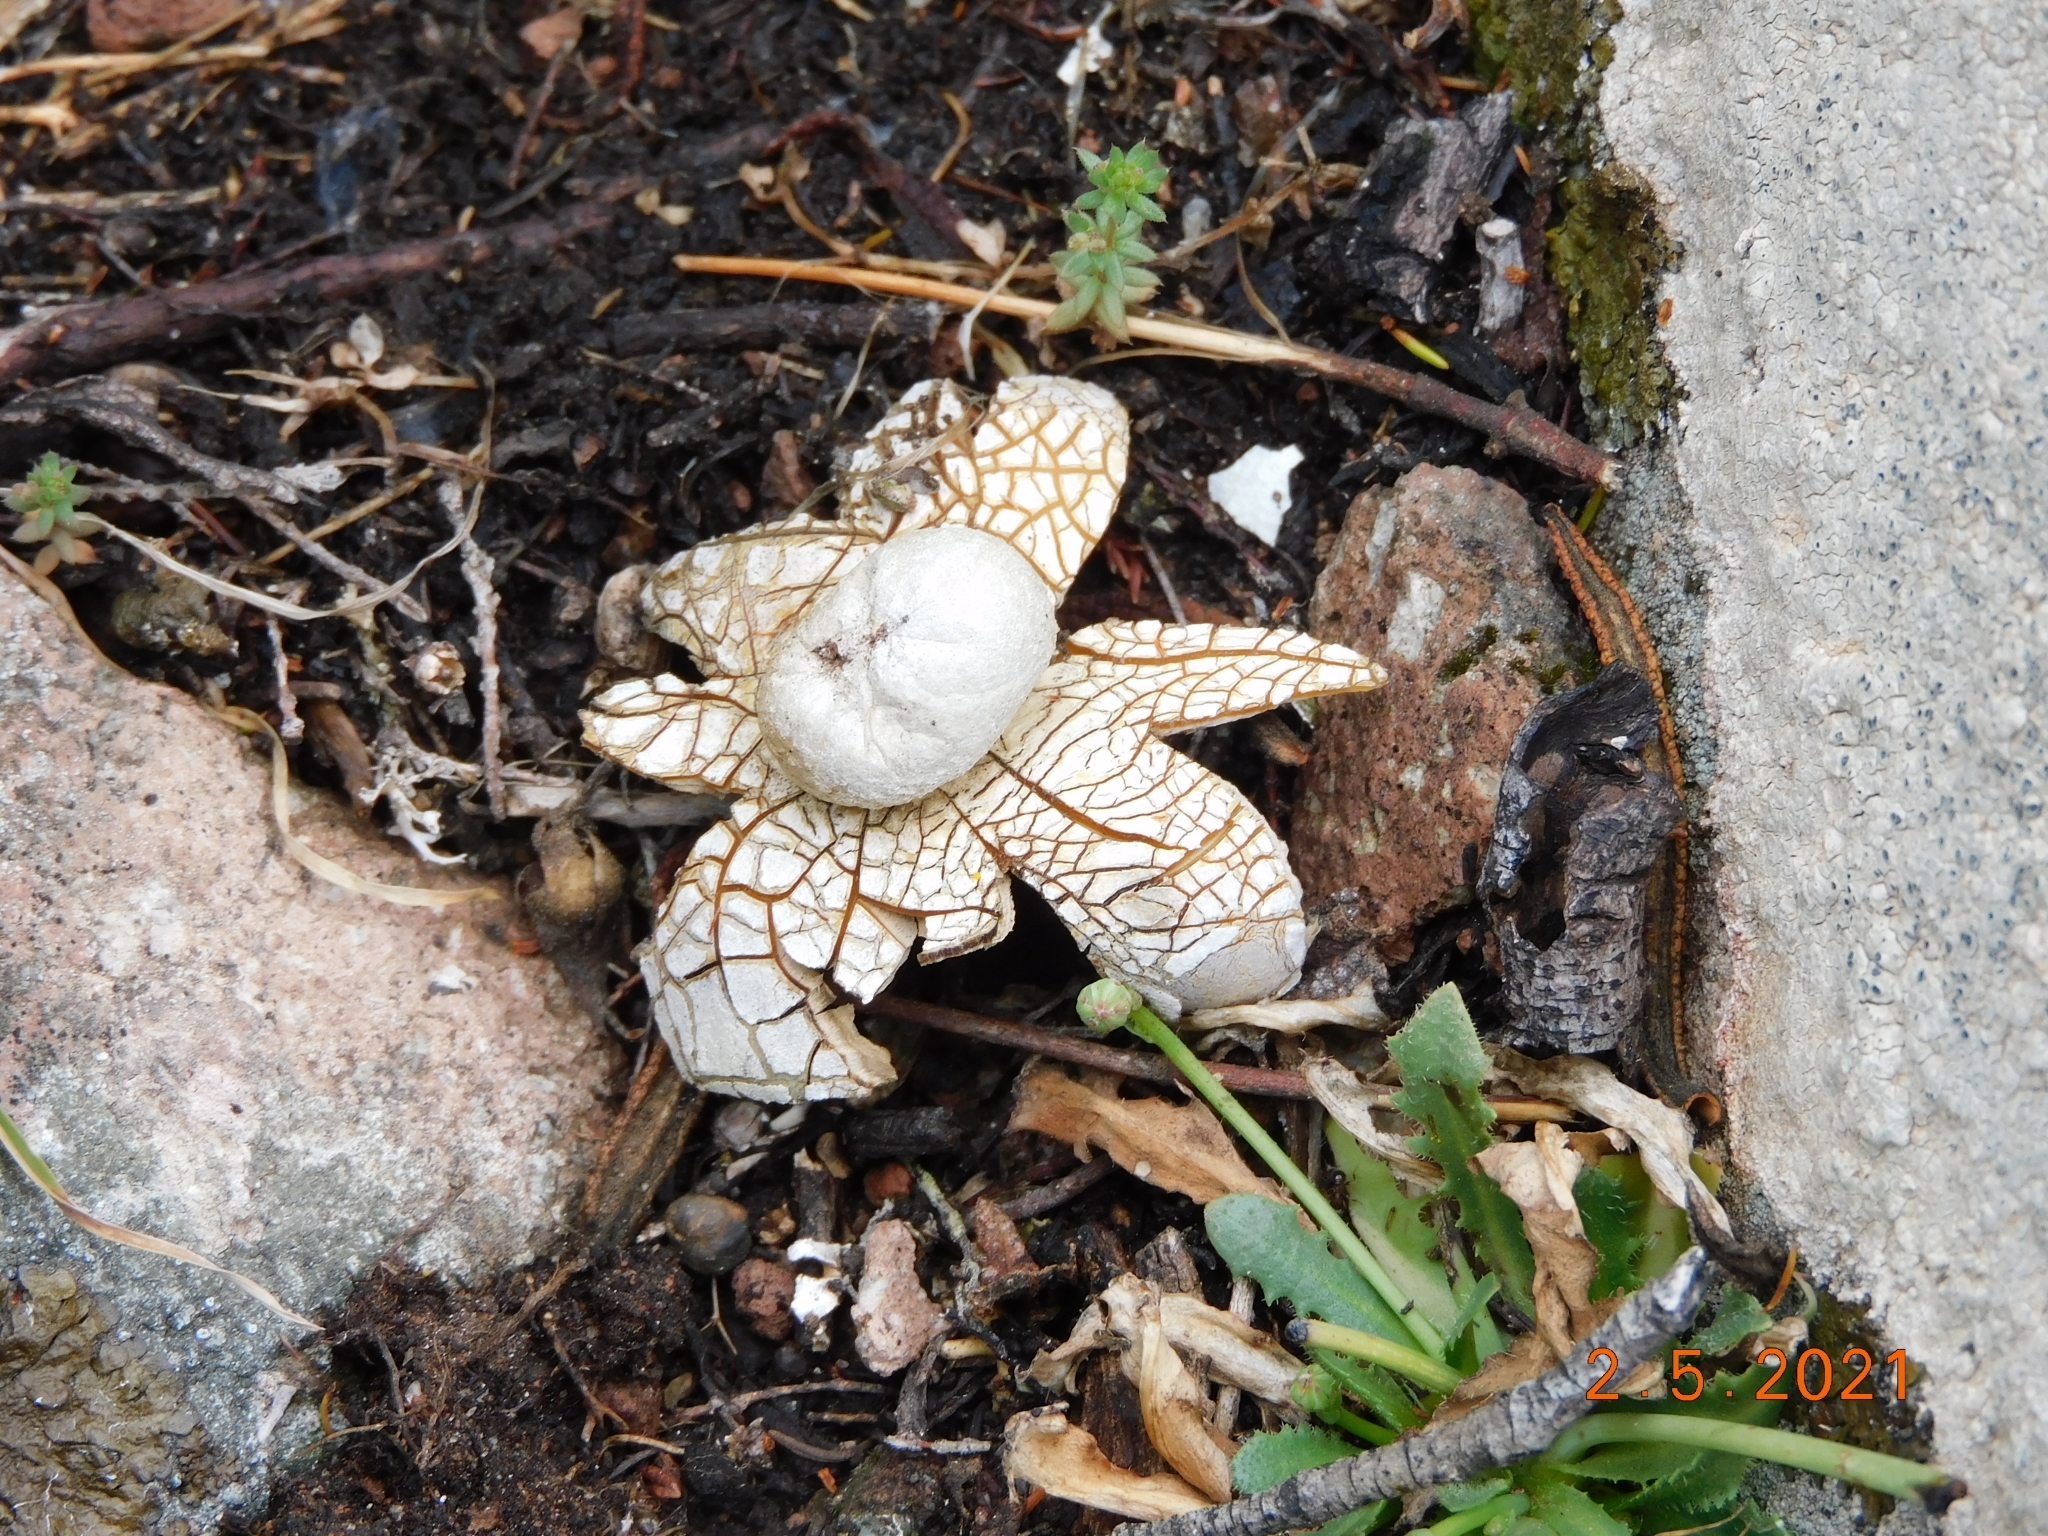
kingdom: Fungi
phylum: Basidiomycota
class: Agaricomycetes
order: Boletales
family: Diplocystidiaceae
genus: Astraeus
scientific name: Astraeus hygrometricus
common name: Barometer earthstar
